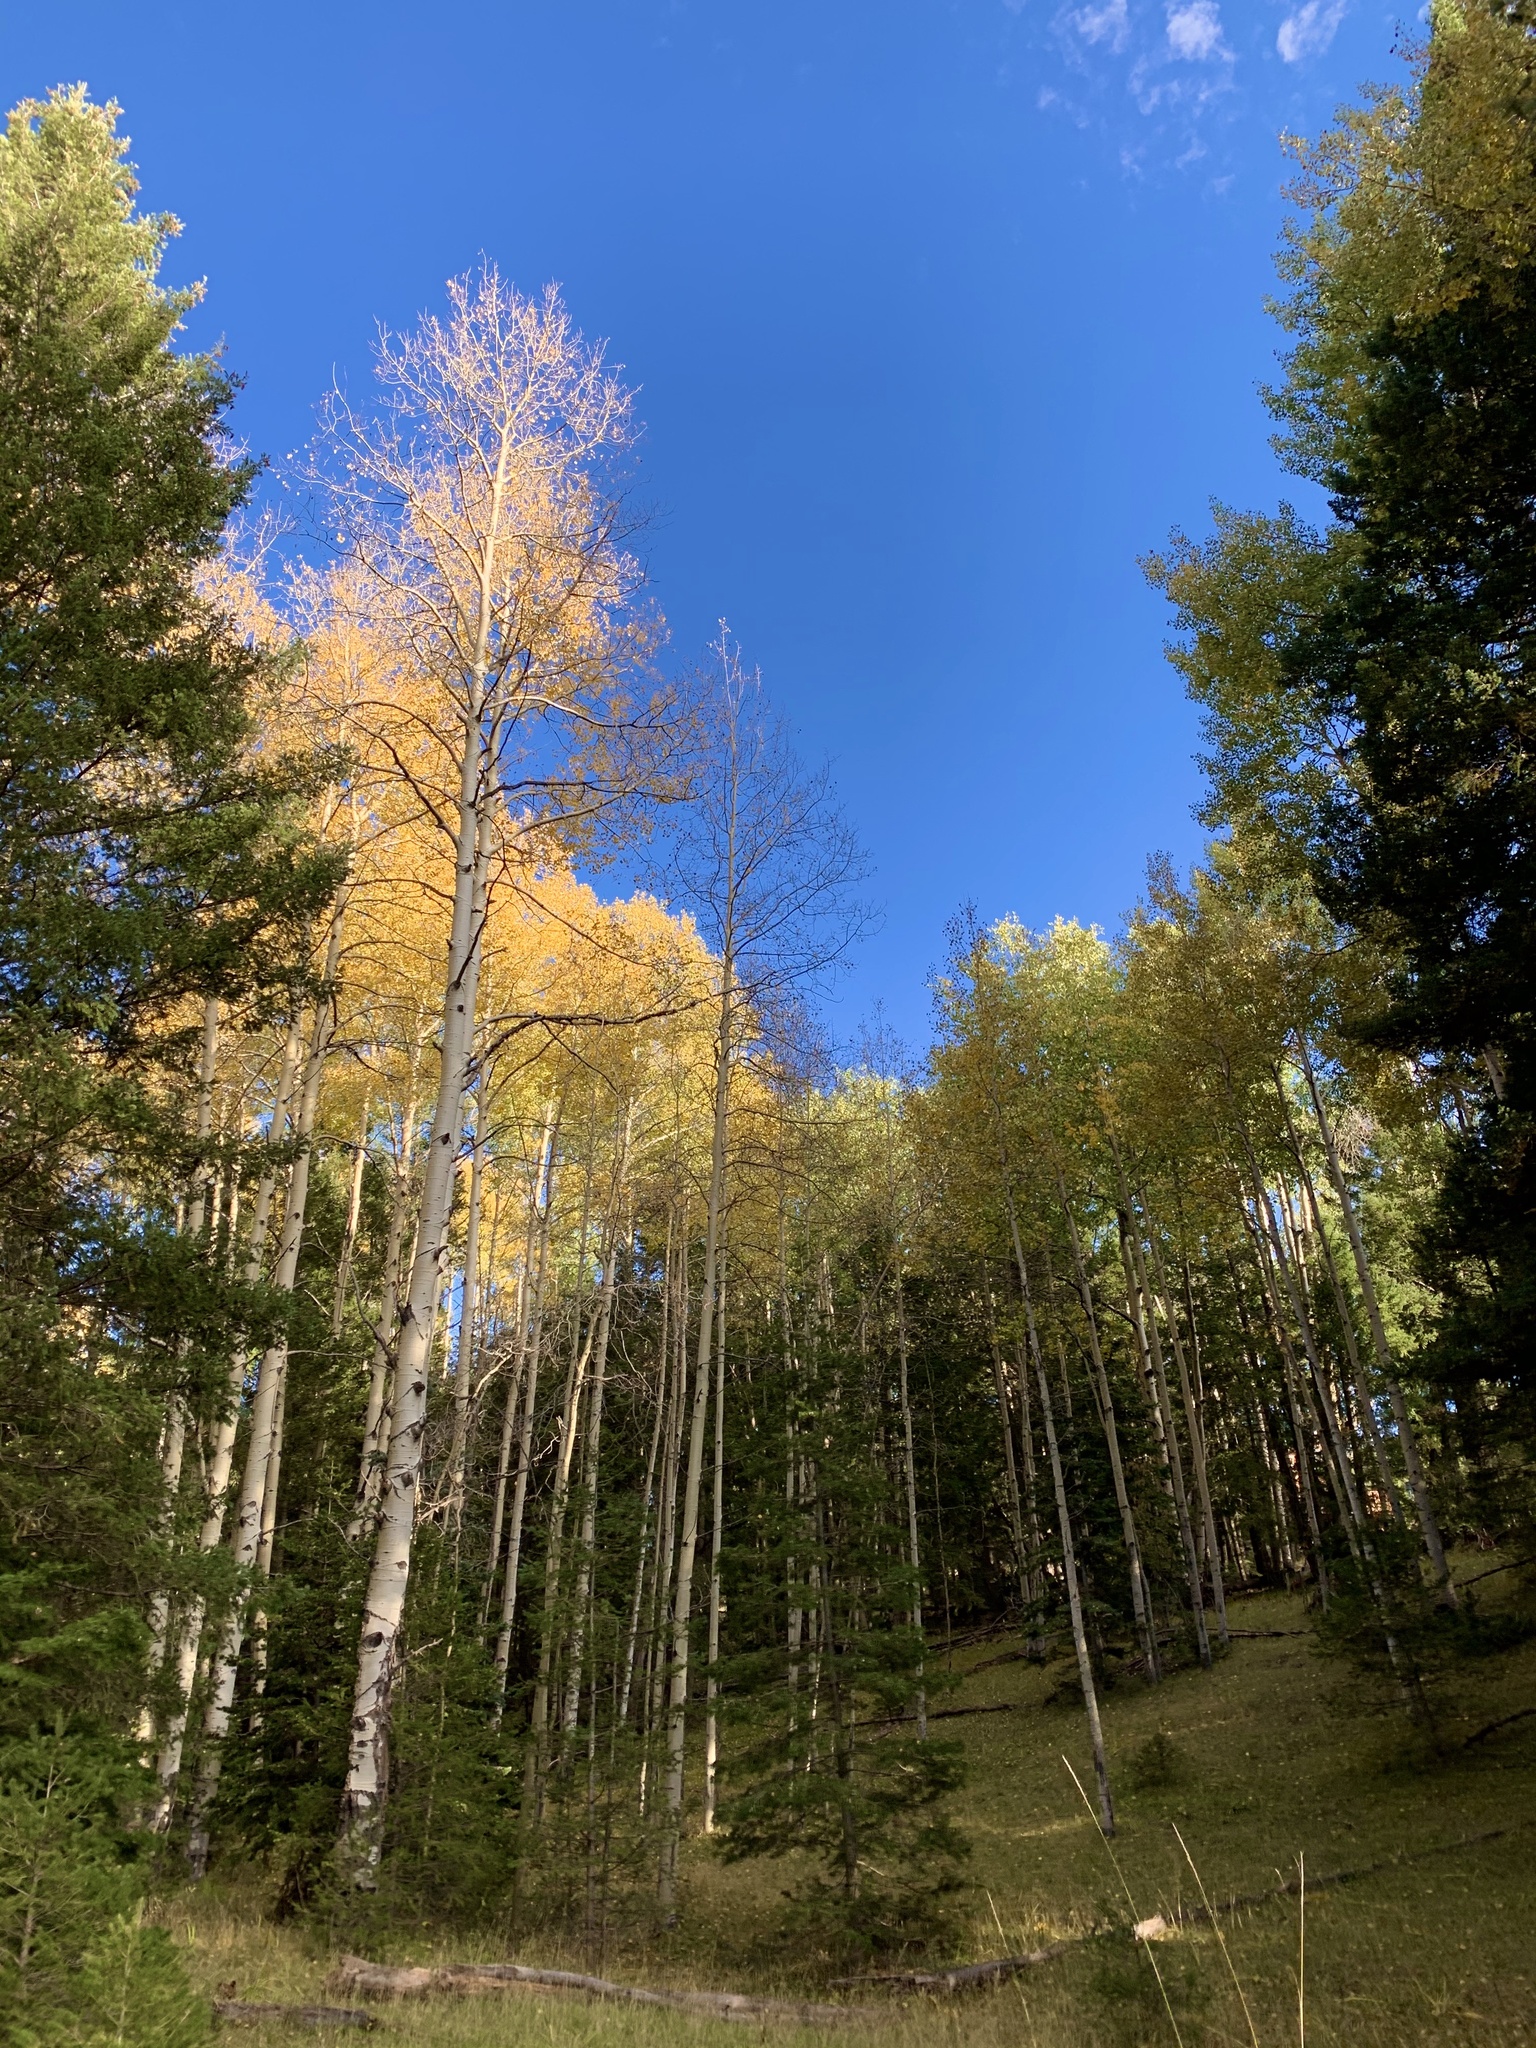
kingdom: Plantae
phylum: Tracheophyta
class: Magnoliopsida
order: Malpighiales
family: Salicaceae
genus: Populus
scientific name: Populus tremuloides
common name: Quaking aspen
